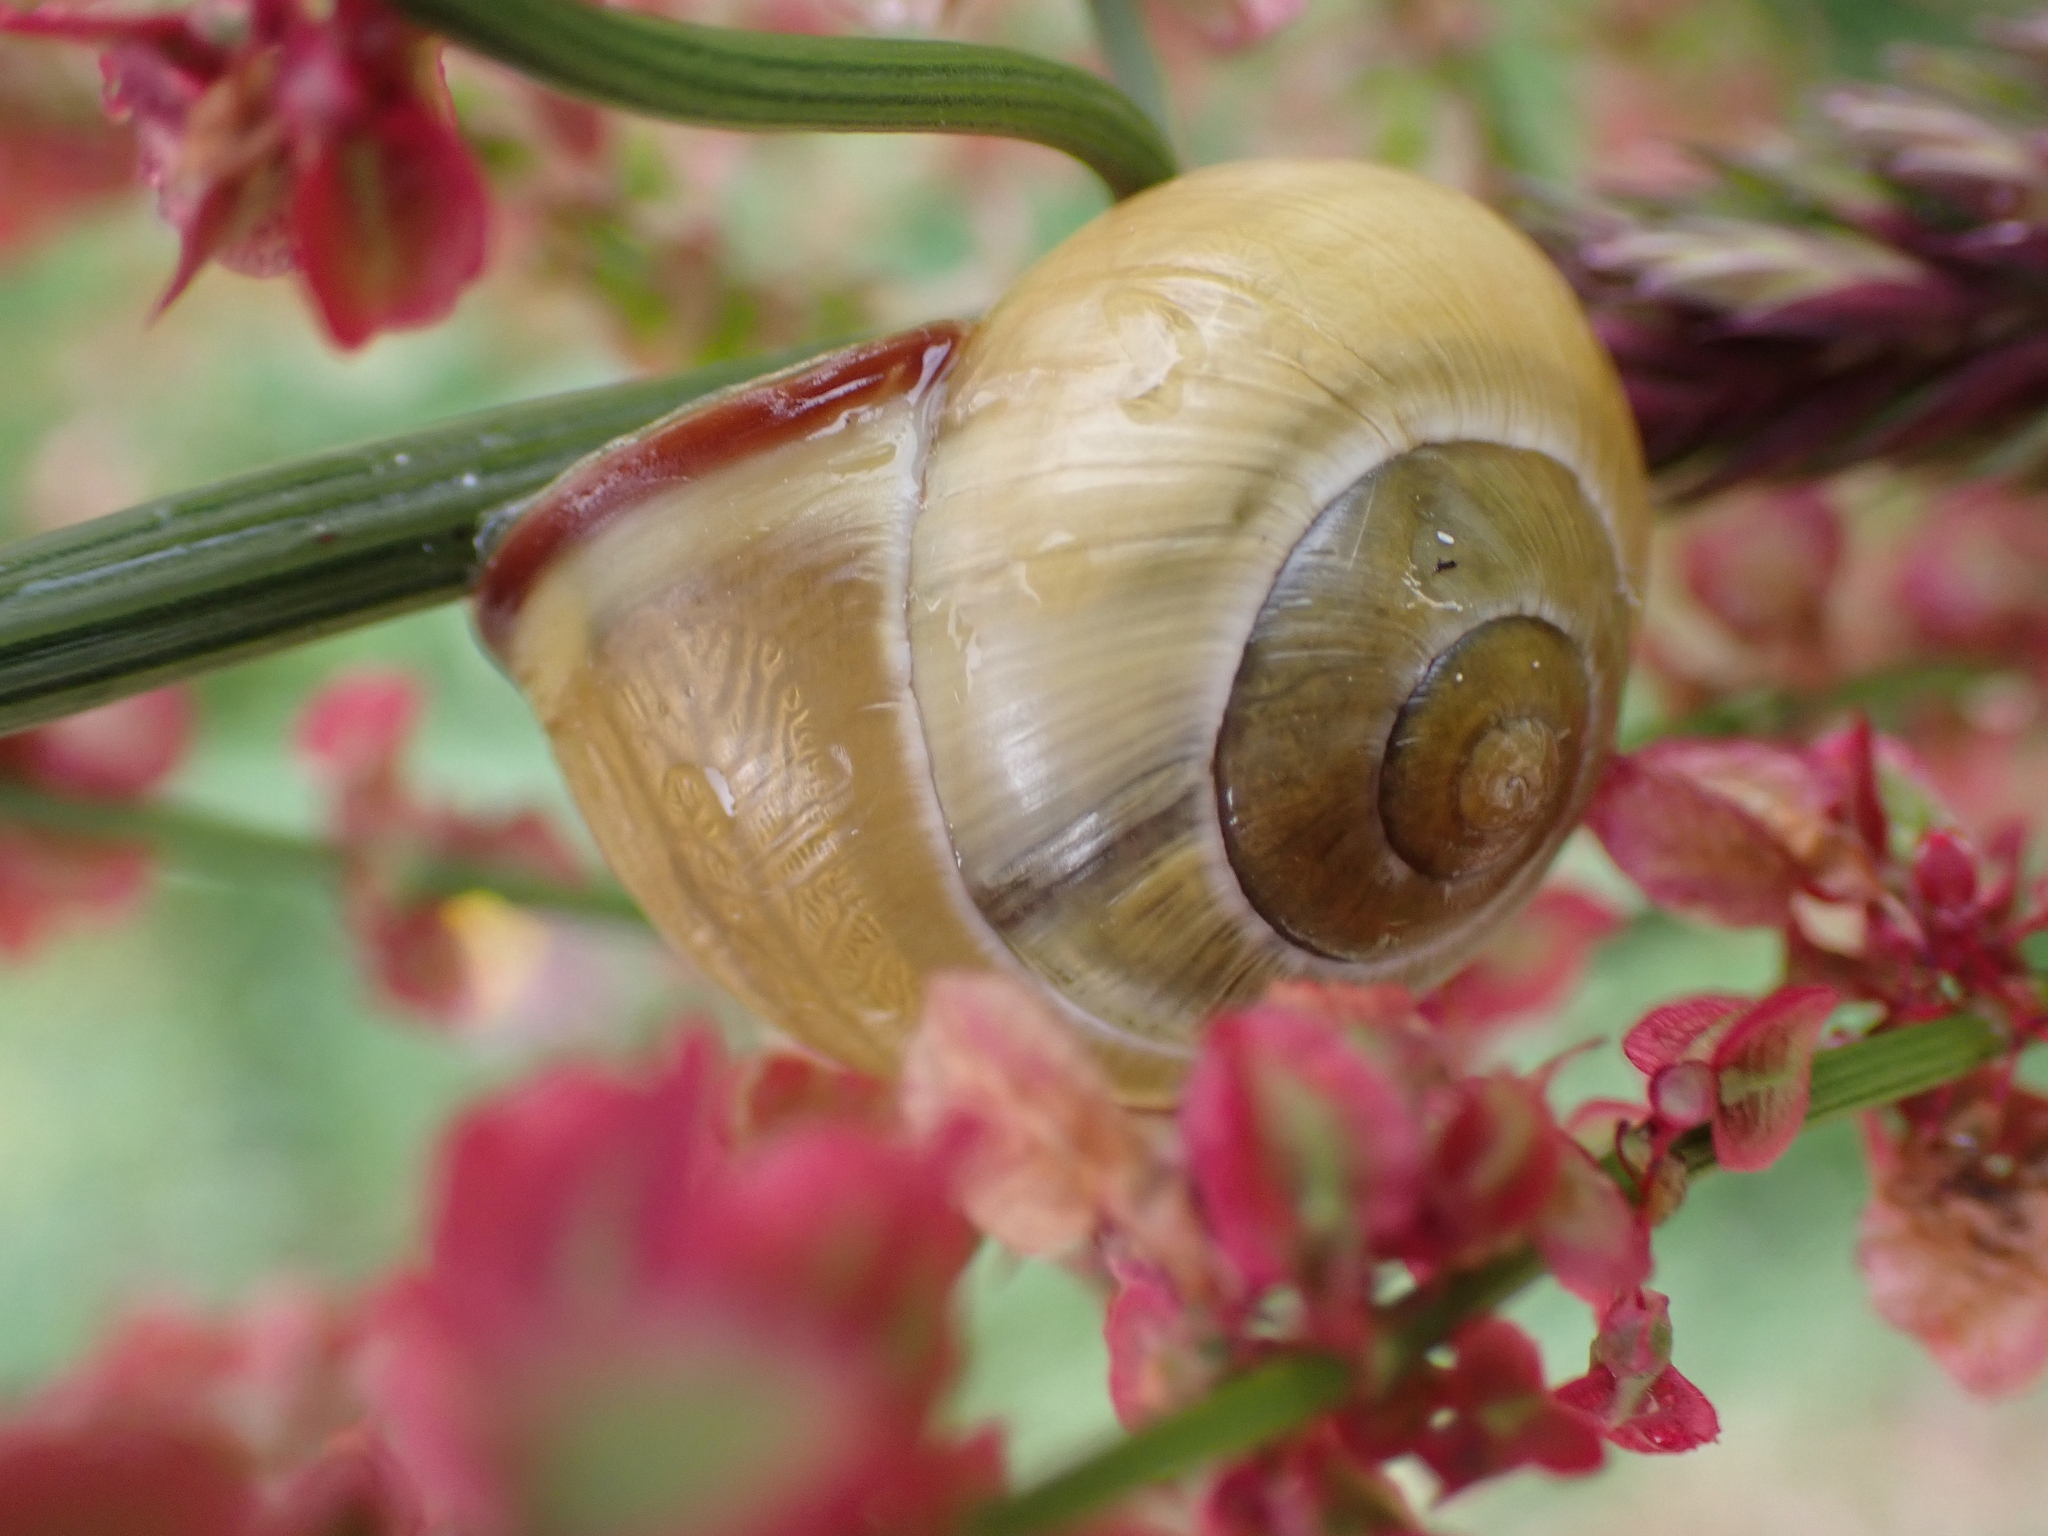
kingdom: Animalia
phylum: Mollusca
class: Gastropoda
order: Stylommatophora
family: Helicidae
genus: Cepaea
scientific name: Cepaea nemoralis
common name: Grovesnail
